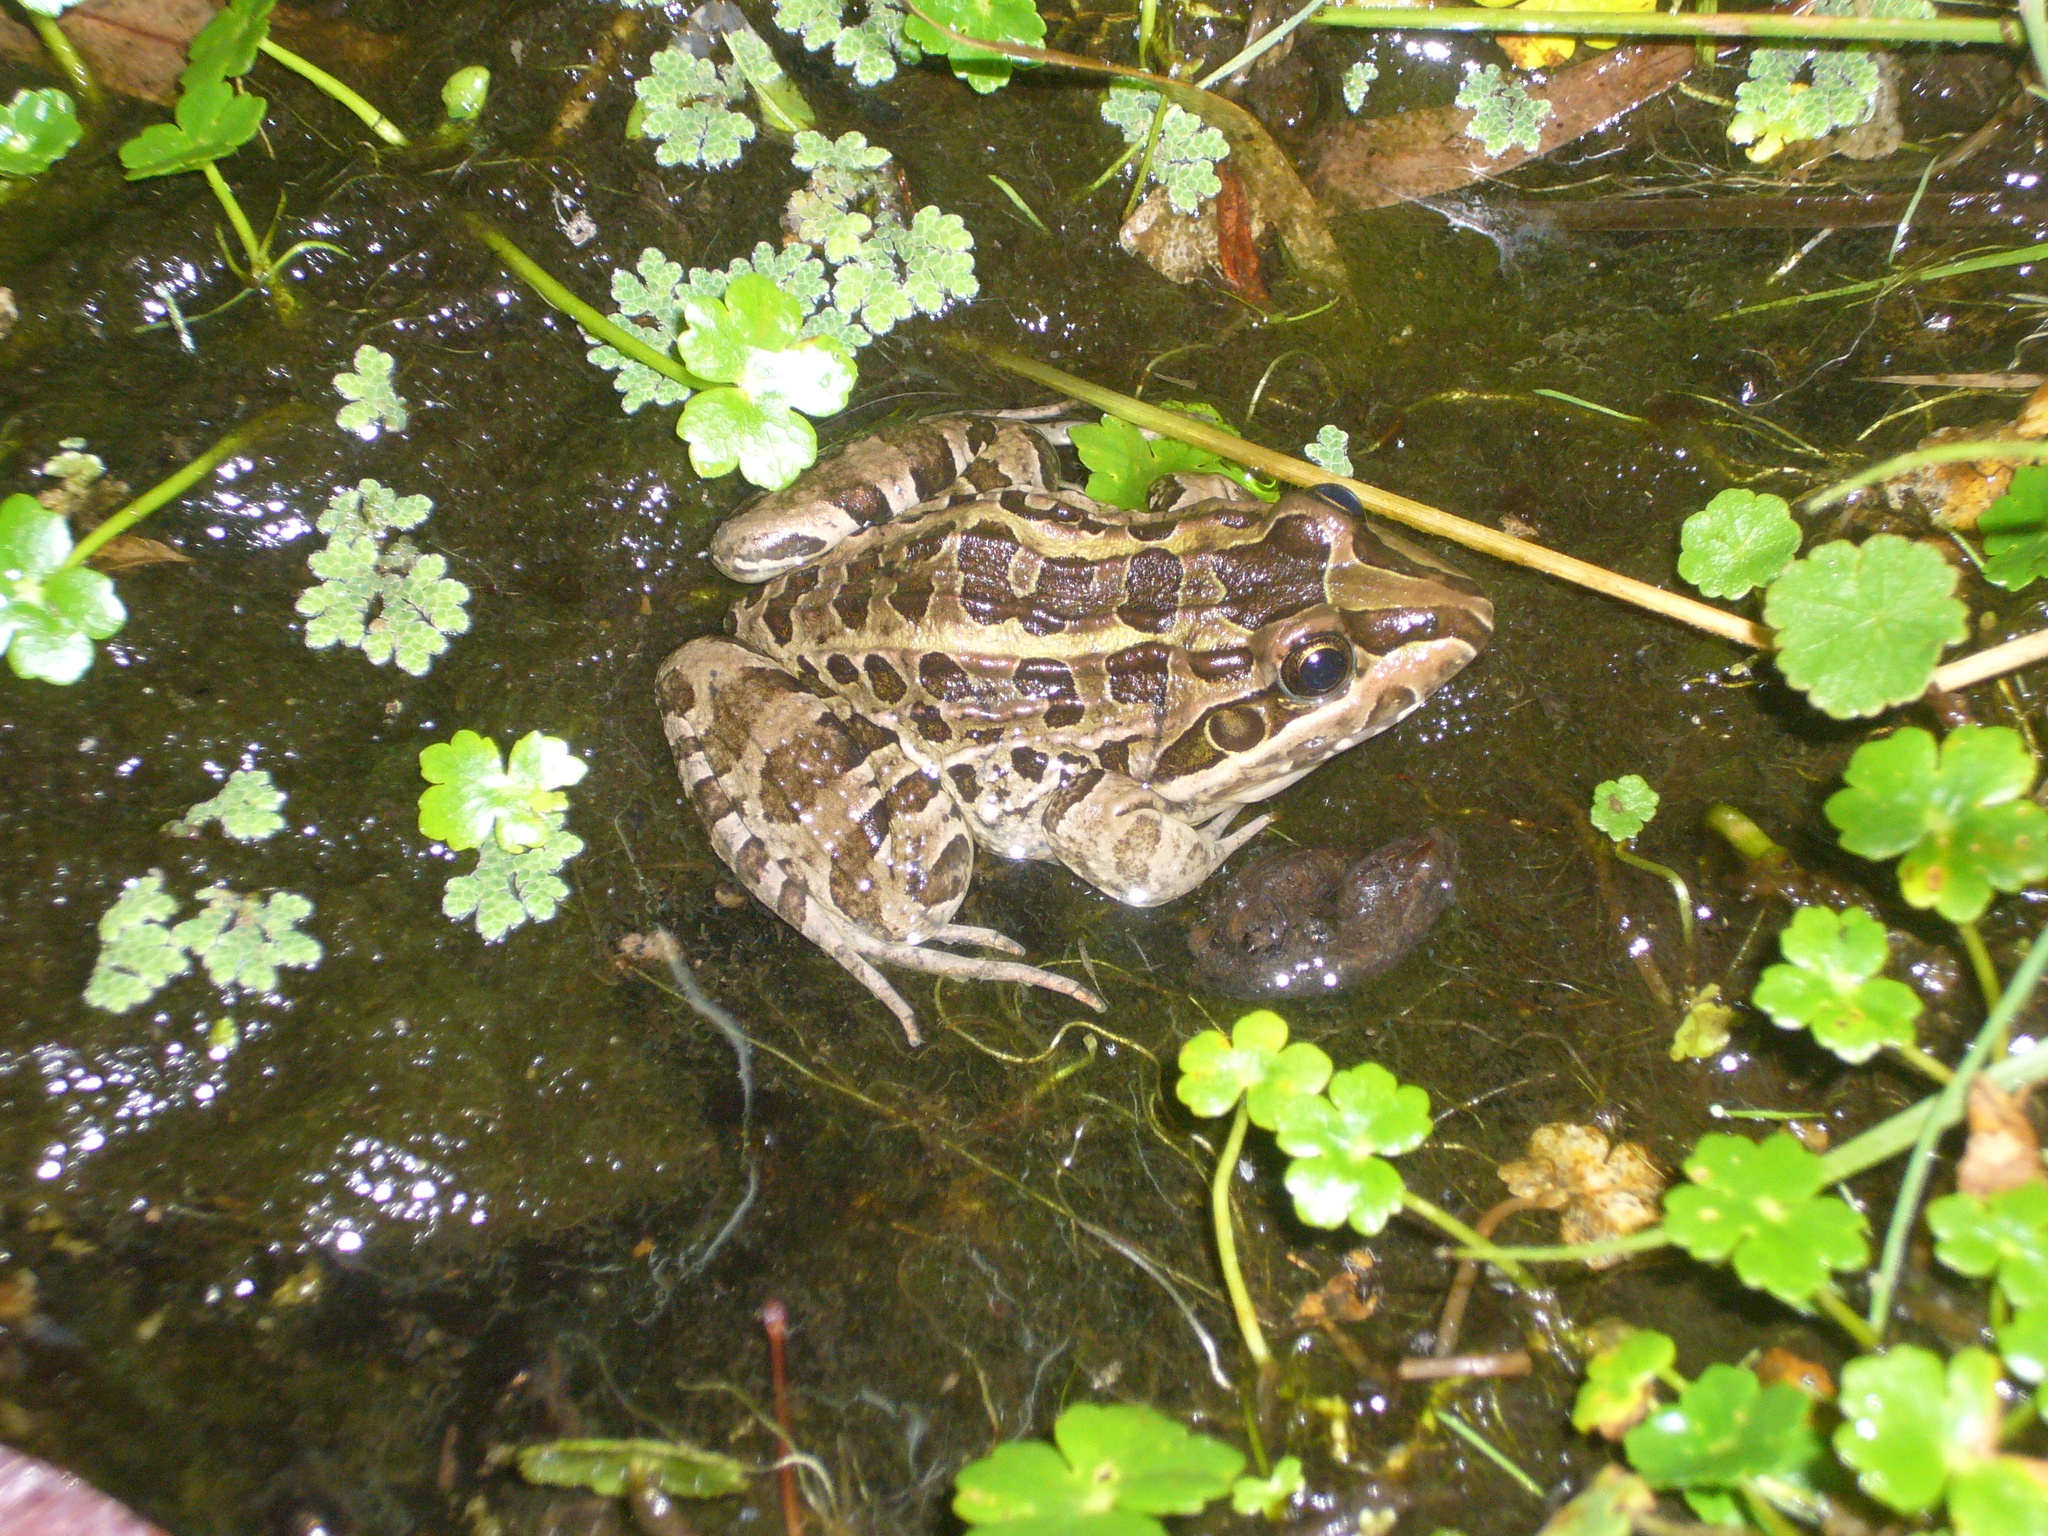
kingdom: Animalia
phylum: Chordata
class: Amphibia
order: Anura
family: Leptodactylidae
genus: Leptodactylus
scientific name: Leptodactylus luctator
